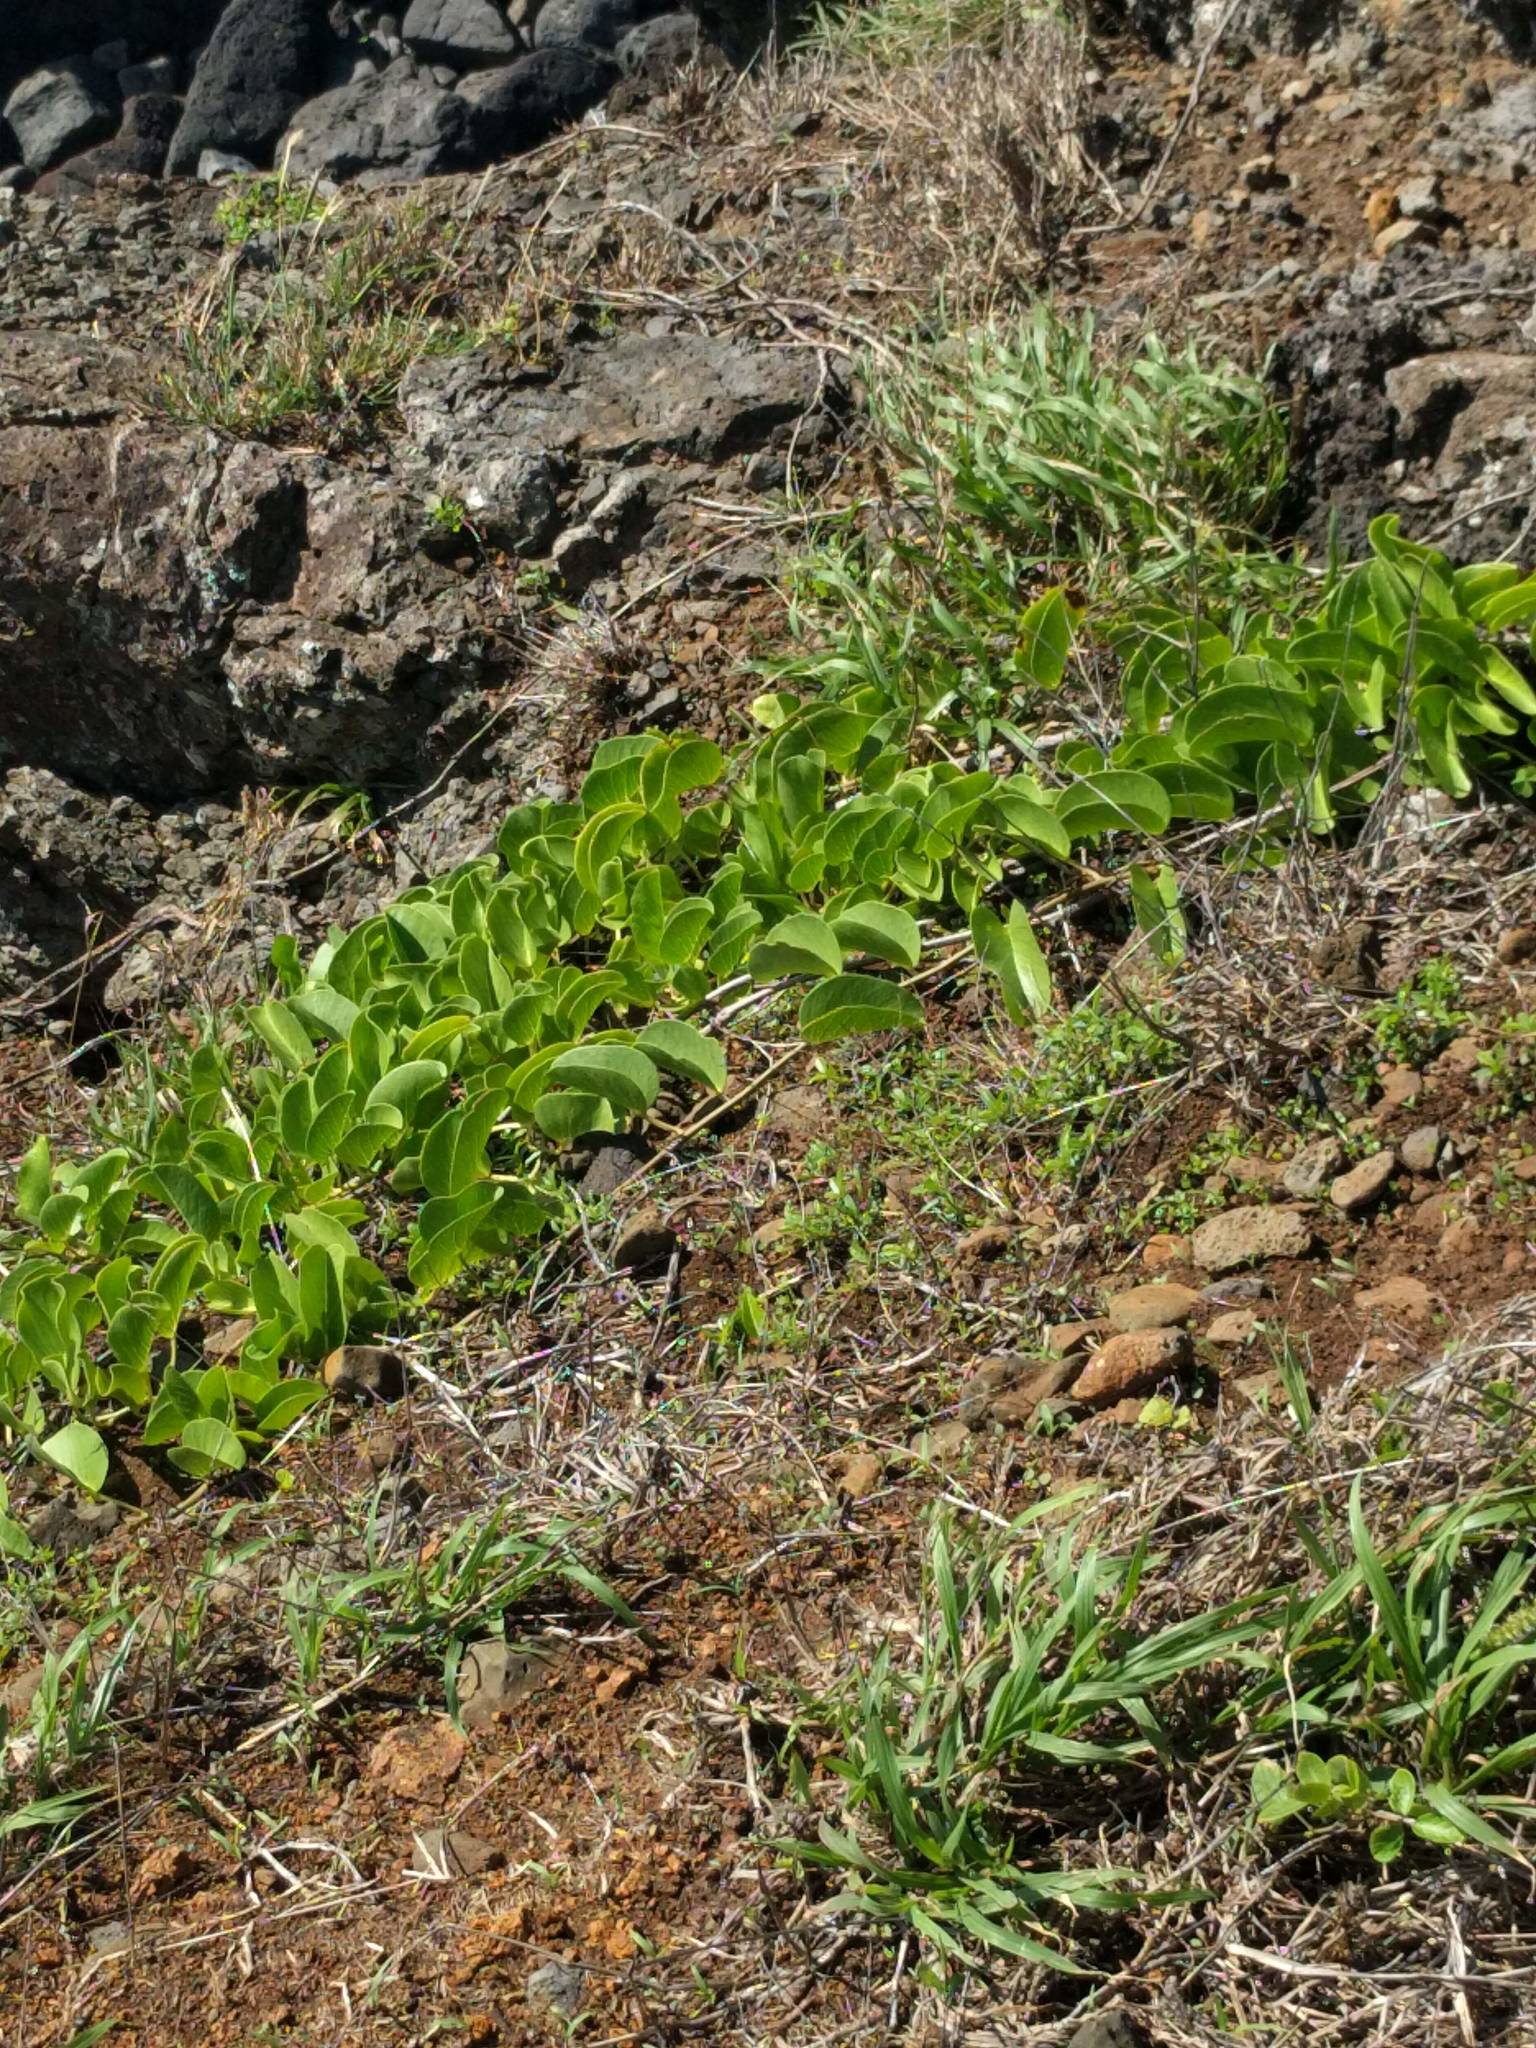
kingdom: Plantae
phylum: Tracheophyta
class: Magnoliopsida
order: Solanales
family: Convolvulaceae
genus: Ipomoea
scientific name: Ipomoea pes-caprae
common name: Beach morning glory
